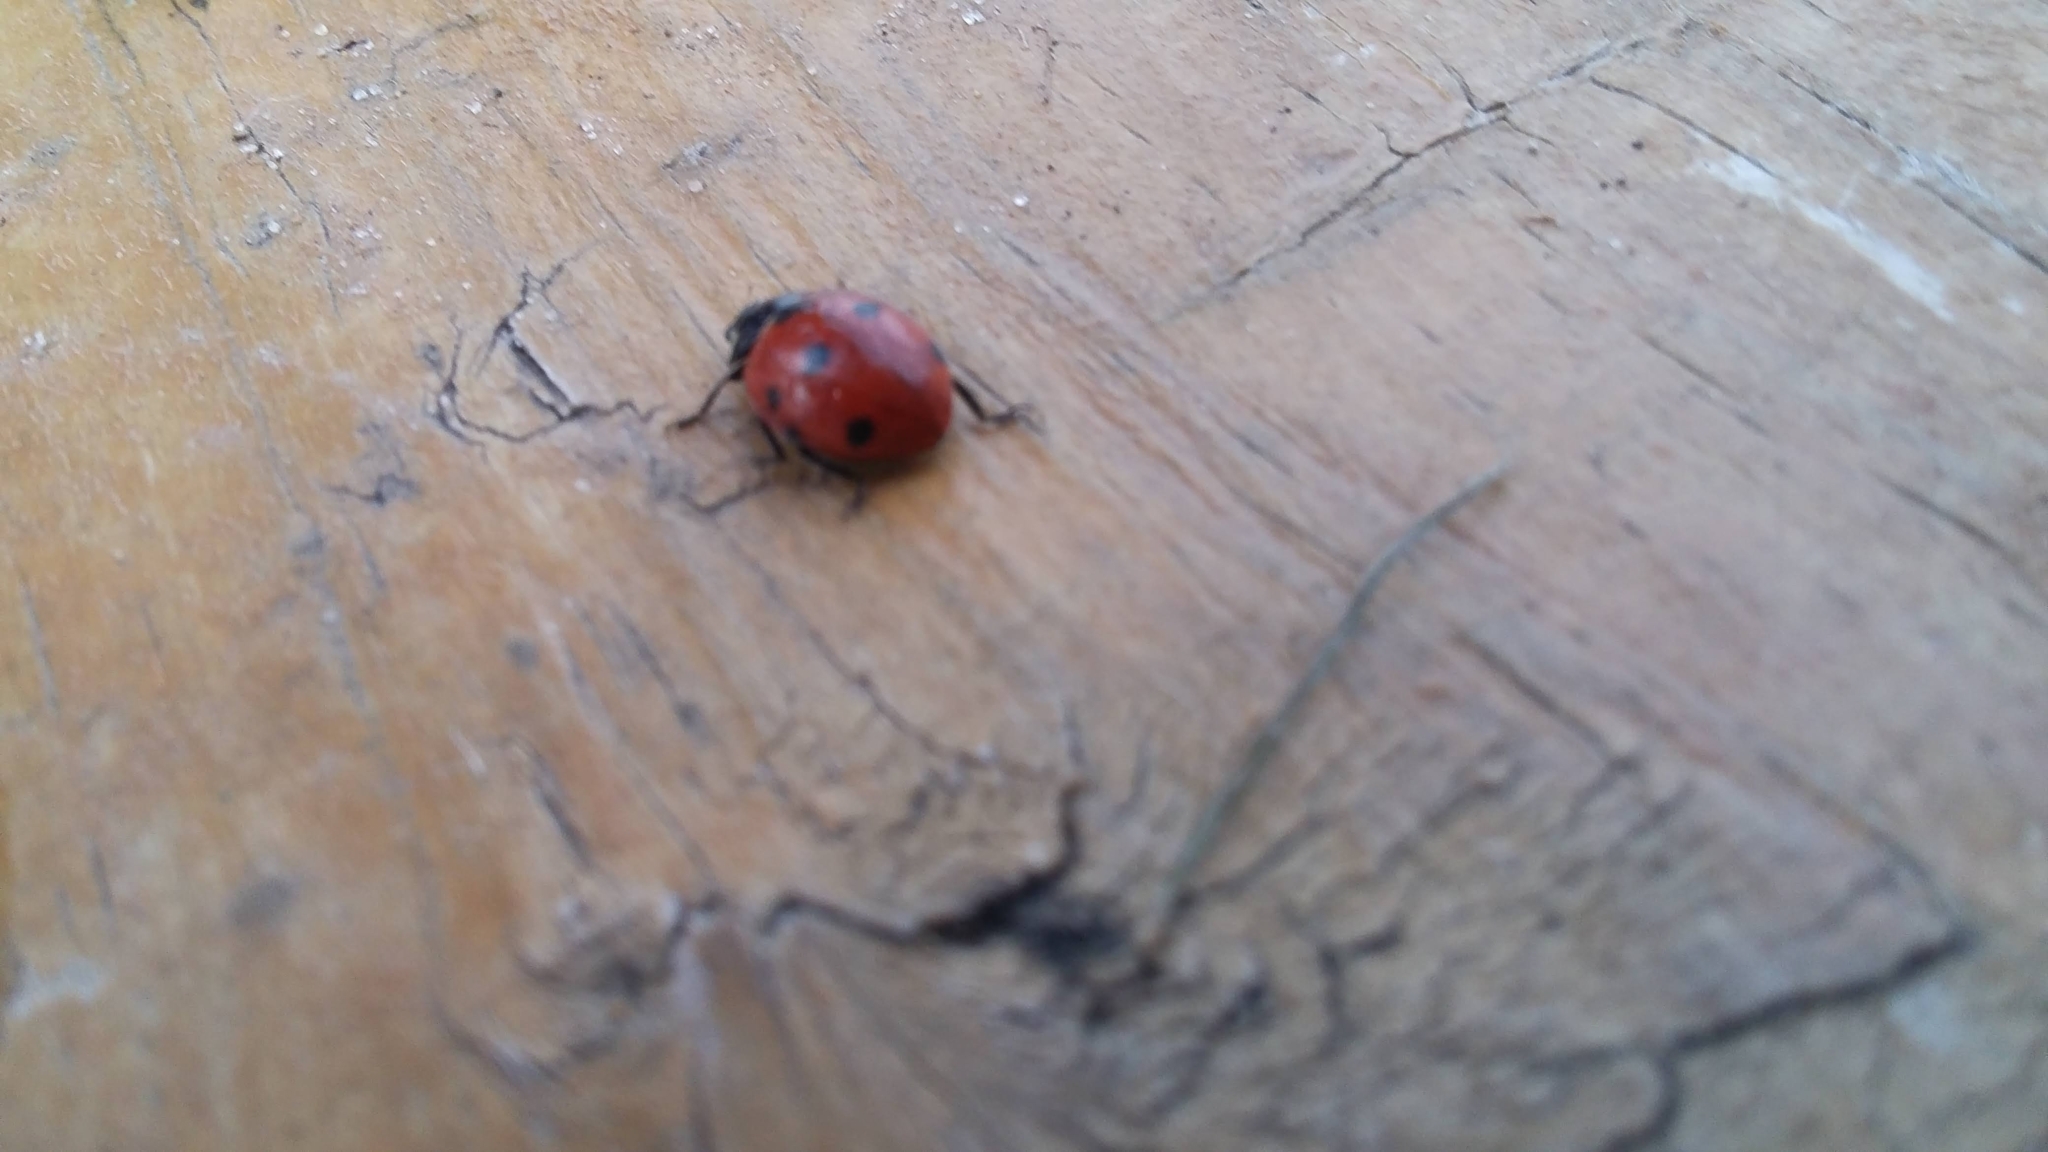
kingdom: Animalia
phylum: Arthropoda
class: Insecta
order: Coleoptera
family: Coccinellidae
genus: Coccinella
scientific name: Coccinella septempunctata
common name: Sevenspotted lady beetle
